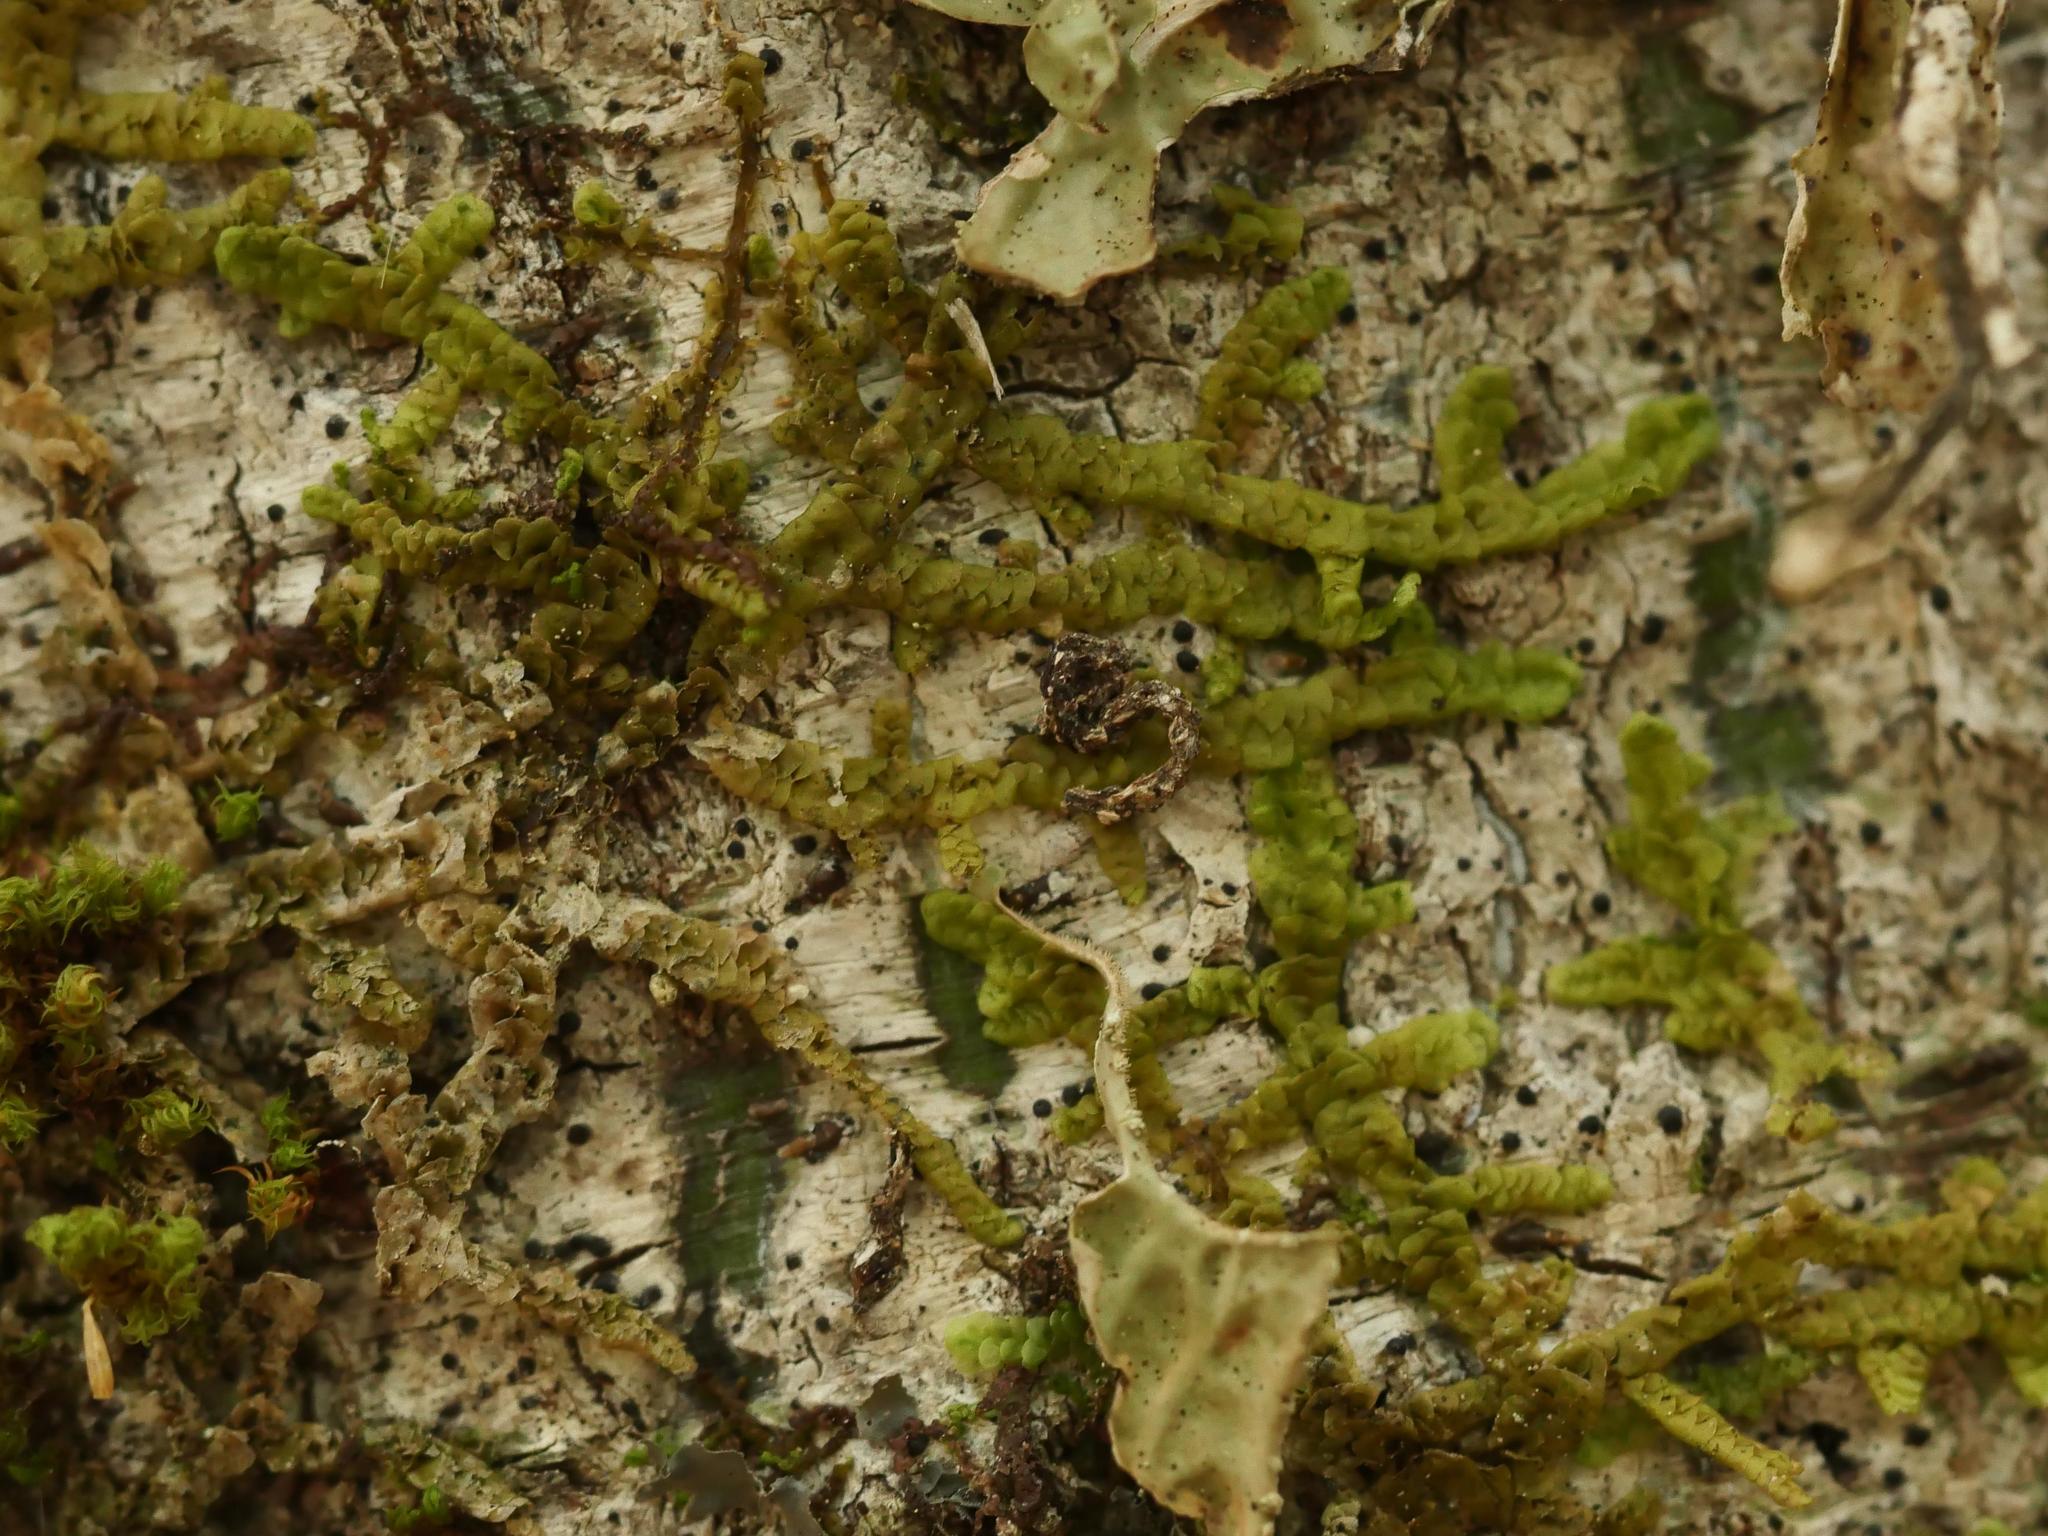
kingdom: Plantae
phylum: Marchantiophyta
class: Jungermanniopsida
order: Porellales
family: Porellaceae
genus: Porella
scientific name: Porella platyphylla
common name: Wall scalewort
